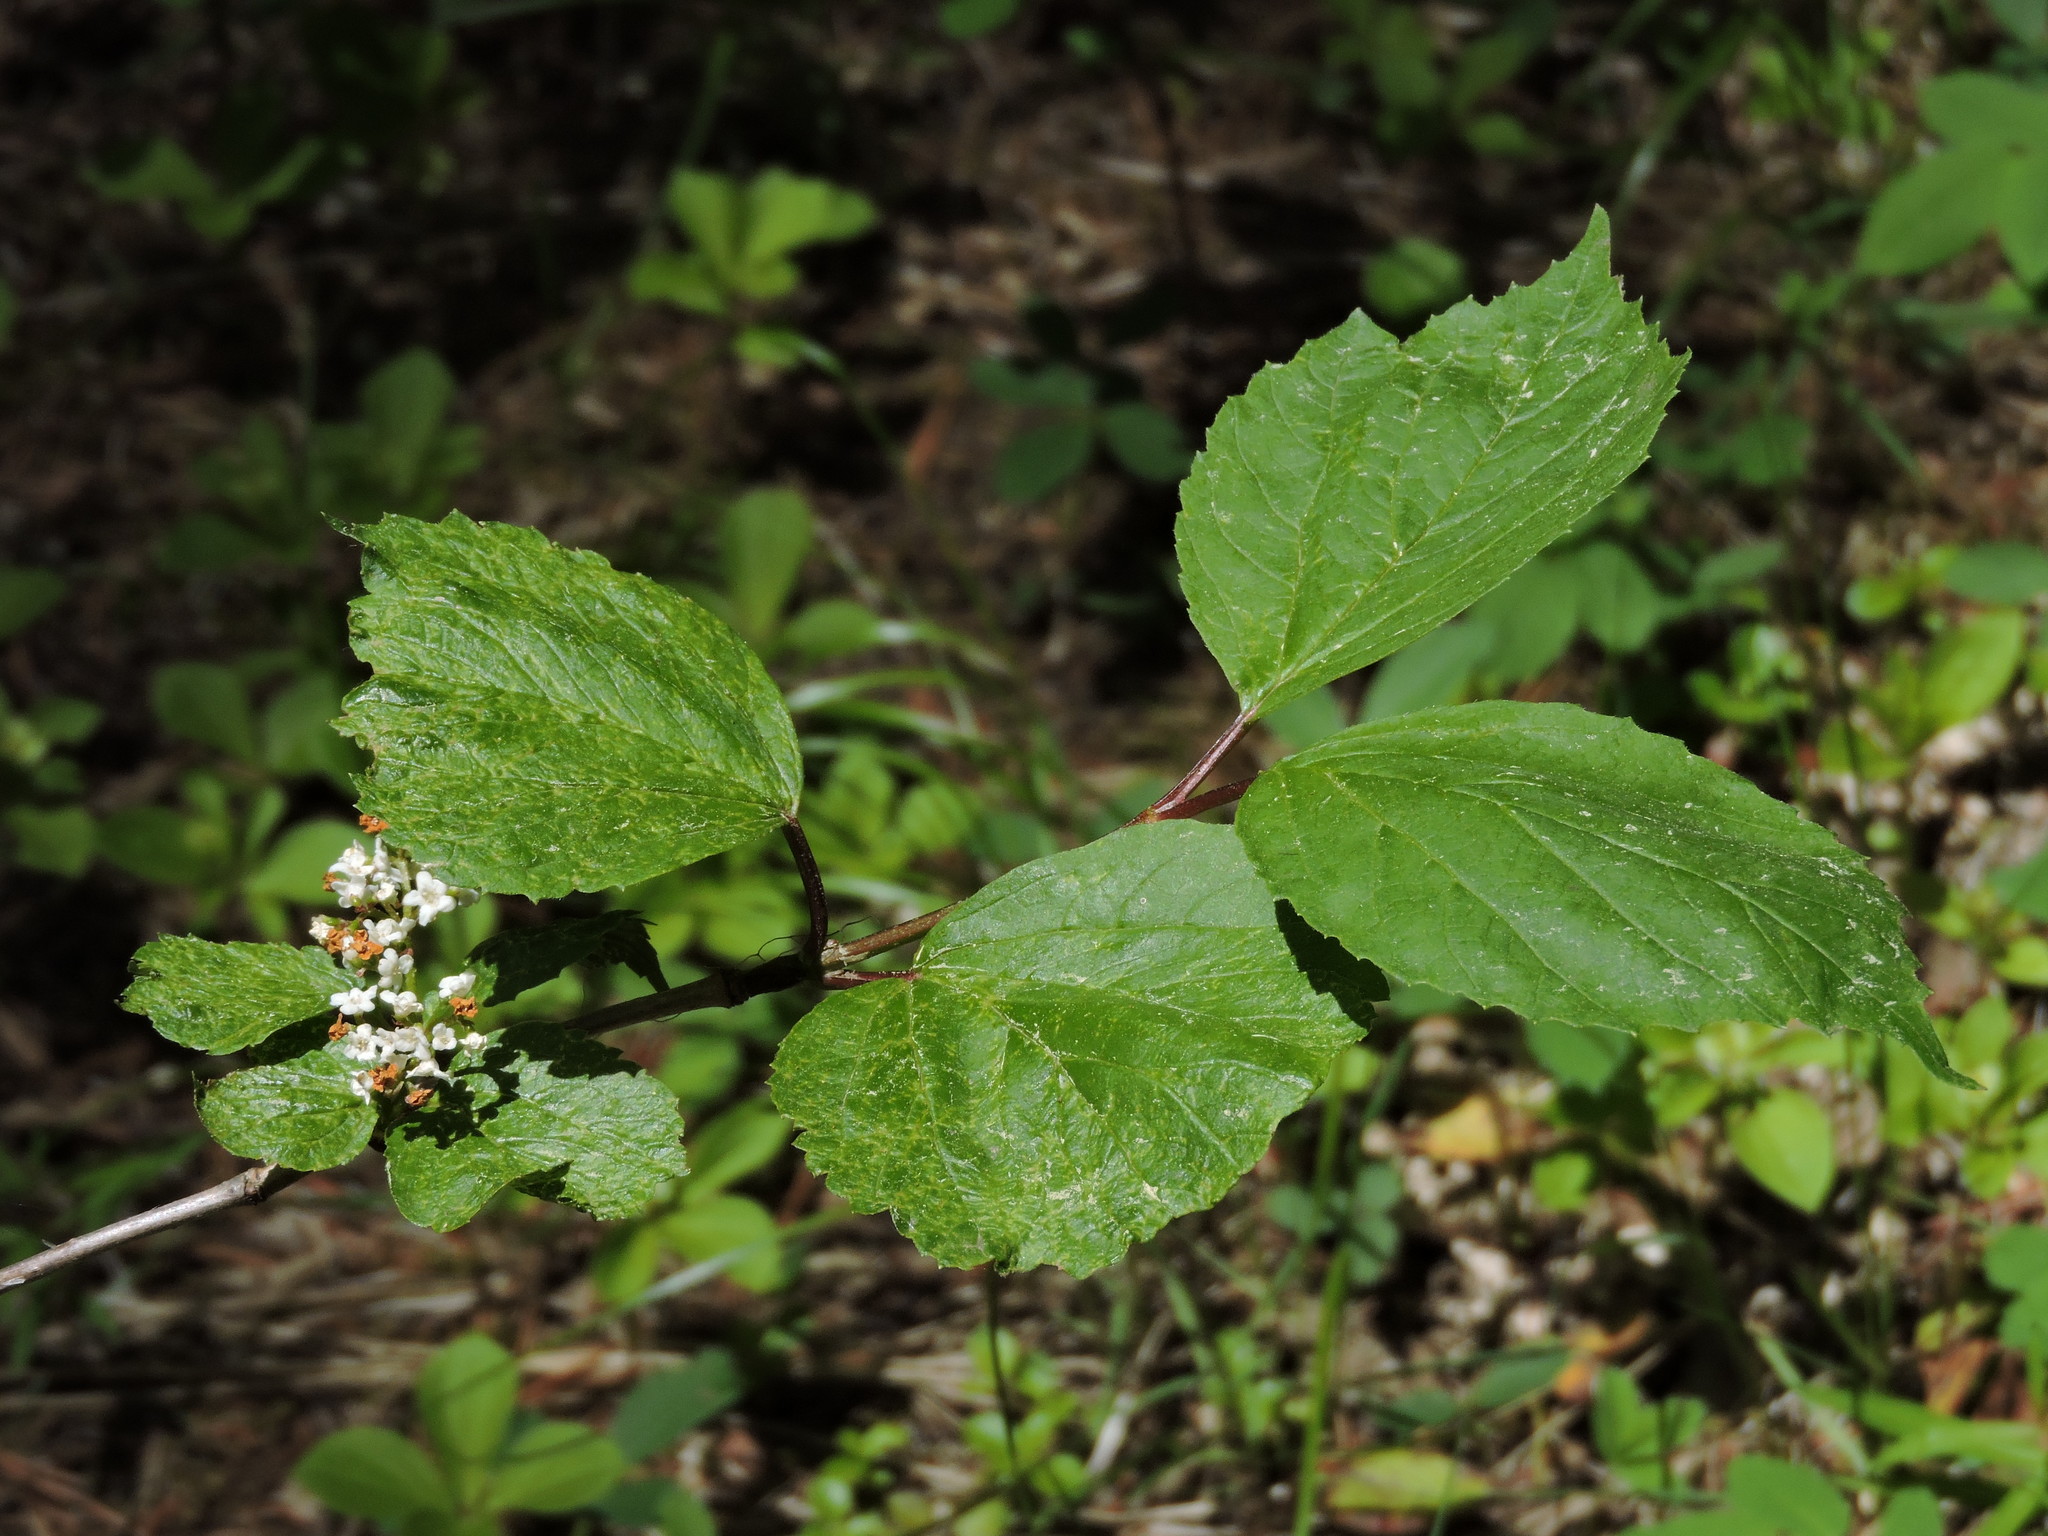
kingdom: Plantae
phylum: Tracheophyta
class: Magnoliopsida
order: Dipsacales
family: Viburnaceae
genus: Viburnum
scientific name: Viburnum edule
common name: Mooseberry
